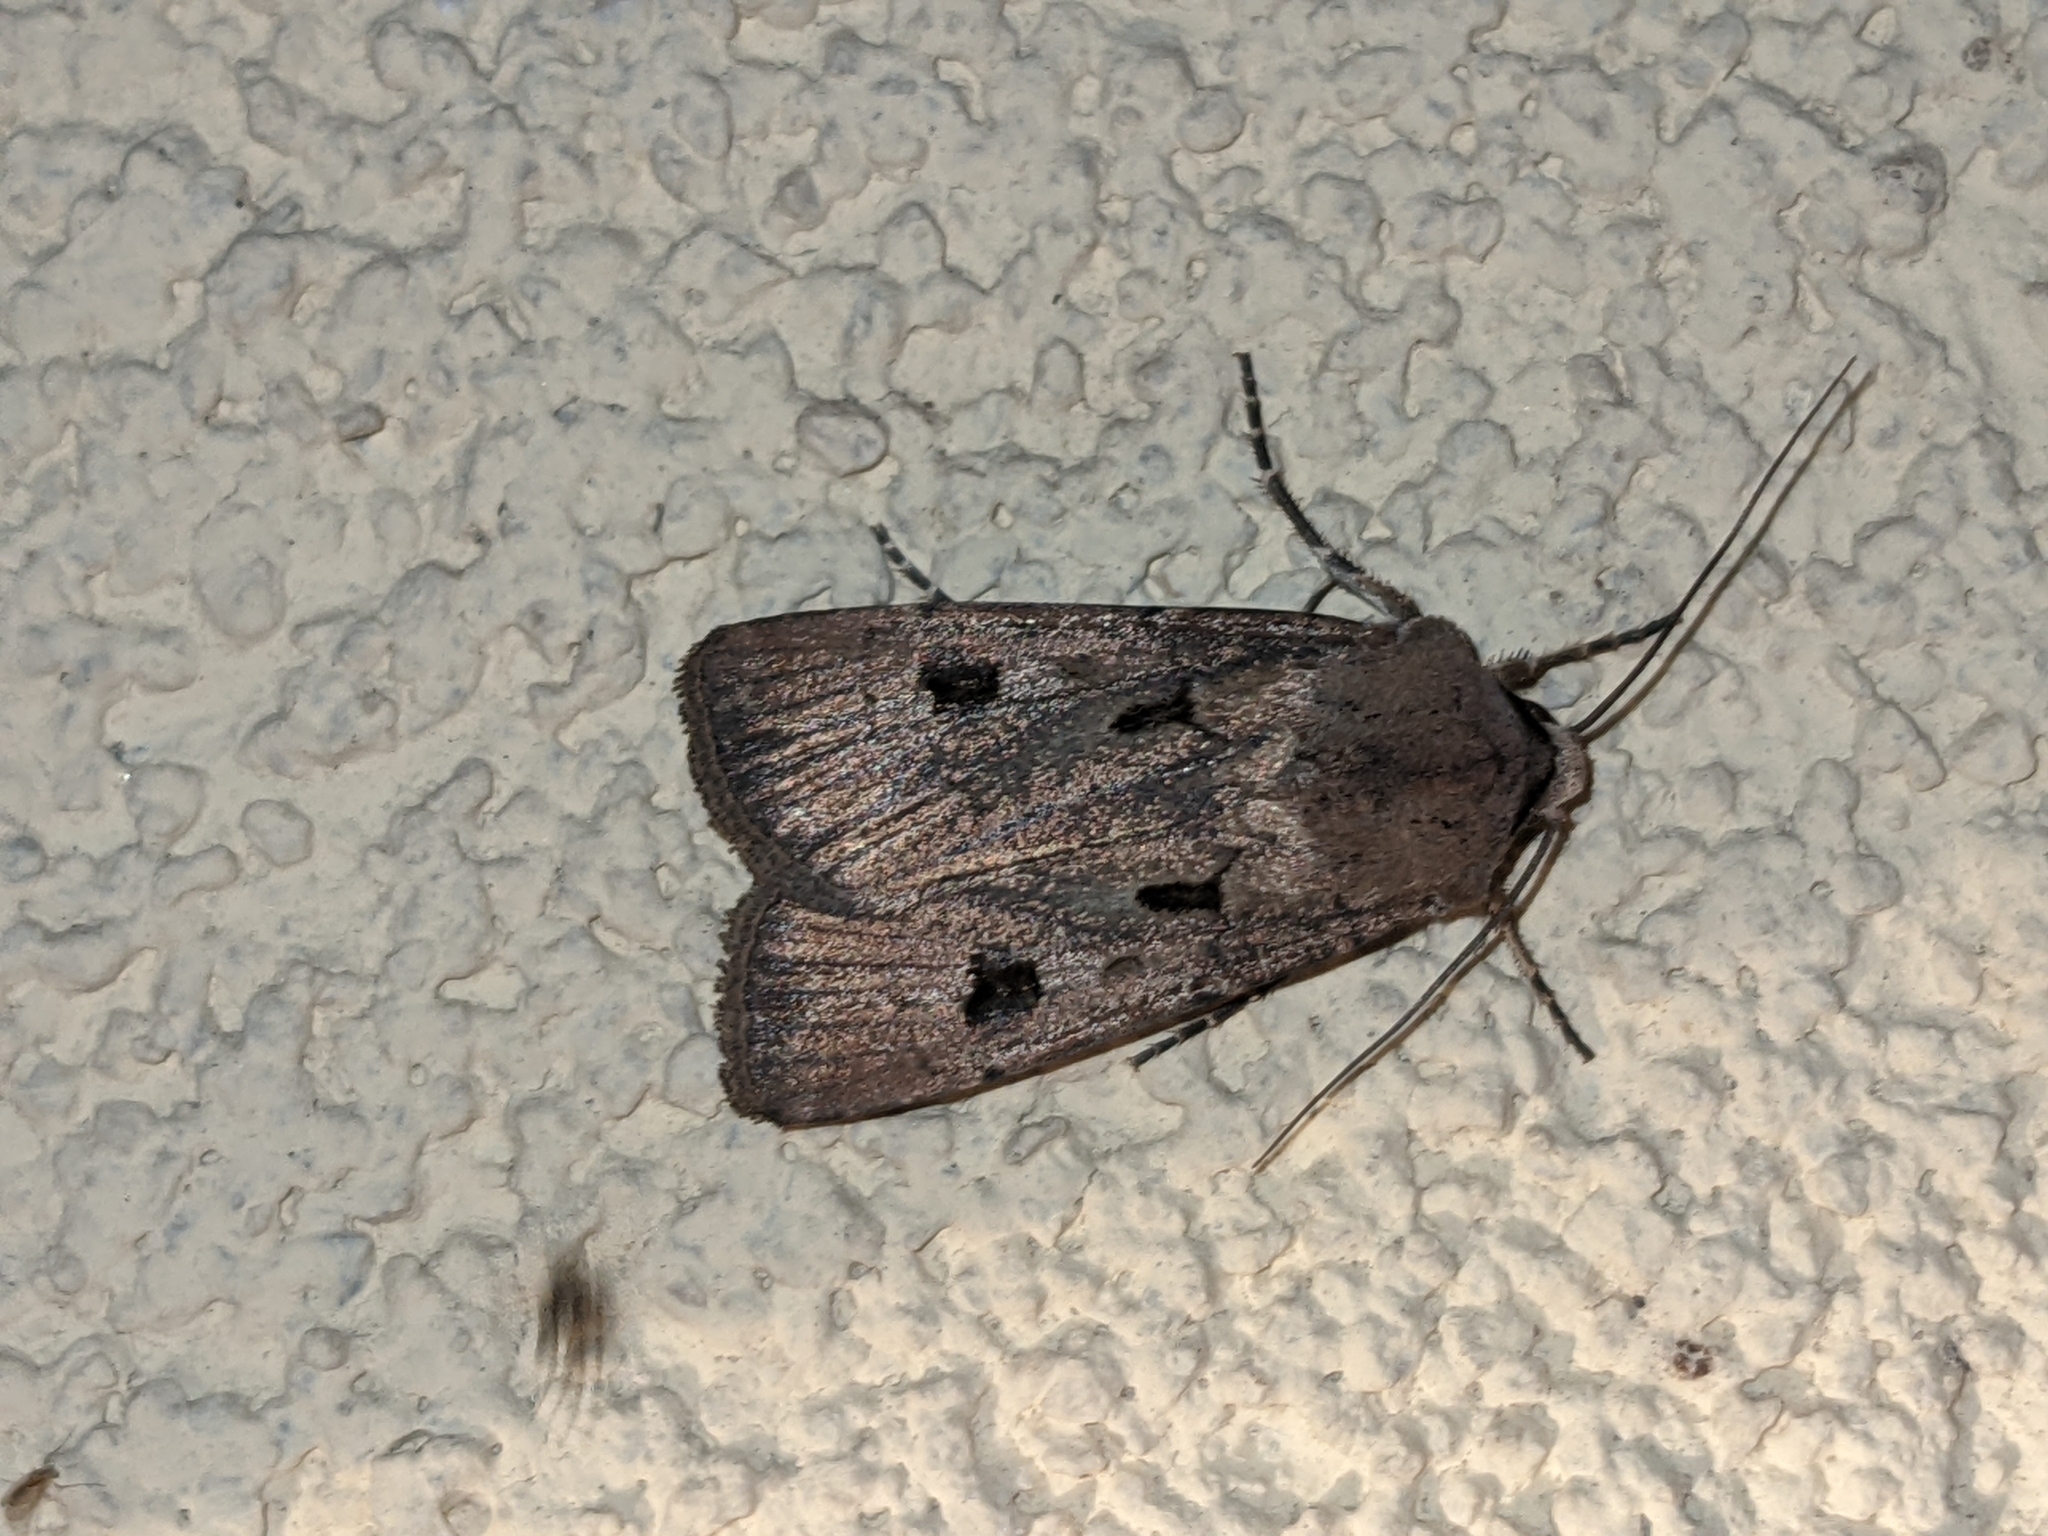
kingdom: Animalia
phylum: Arthropoda
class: Insecta
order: Lepidoptera
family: Noctuidae
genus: Agrotis
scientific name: Agrotis exclamationis
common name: Heart and dart
